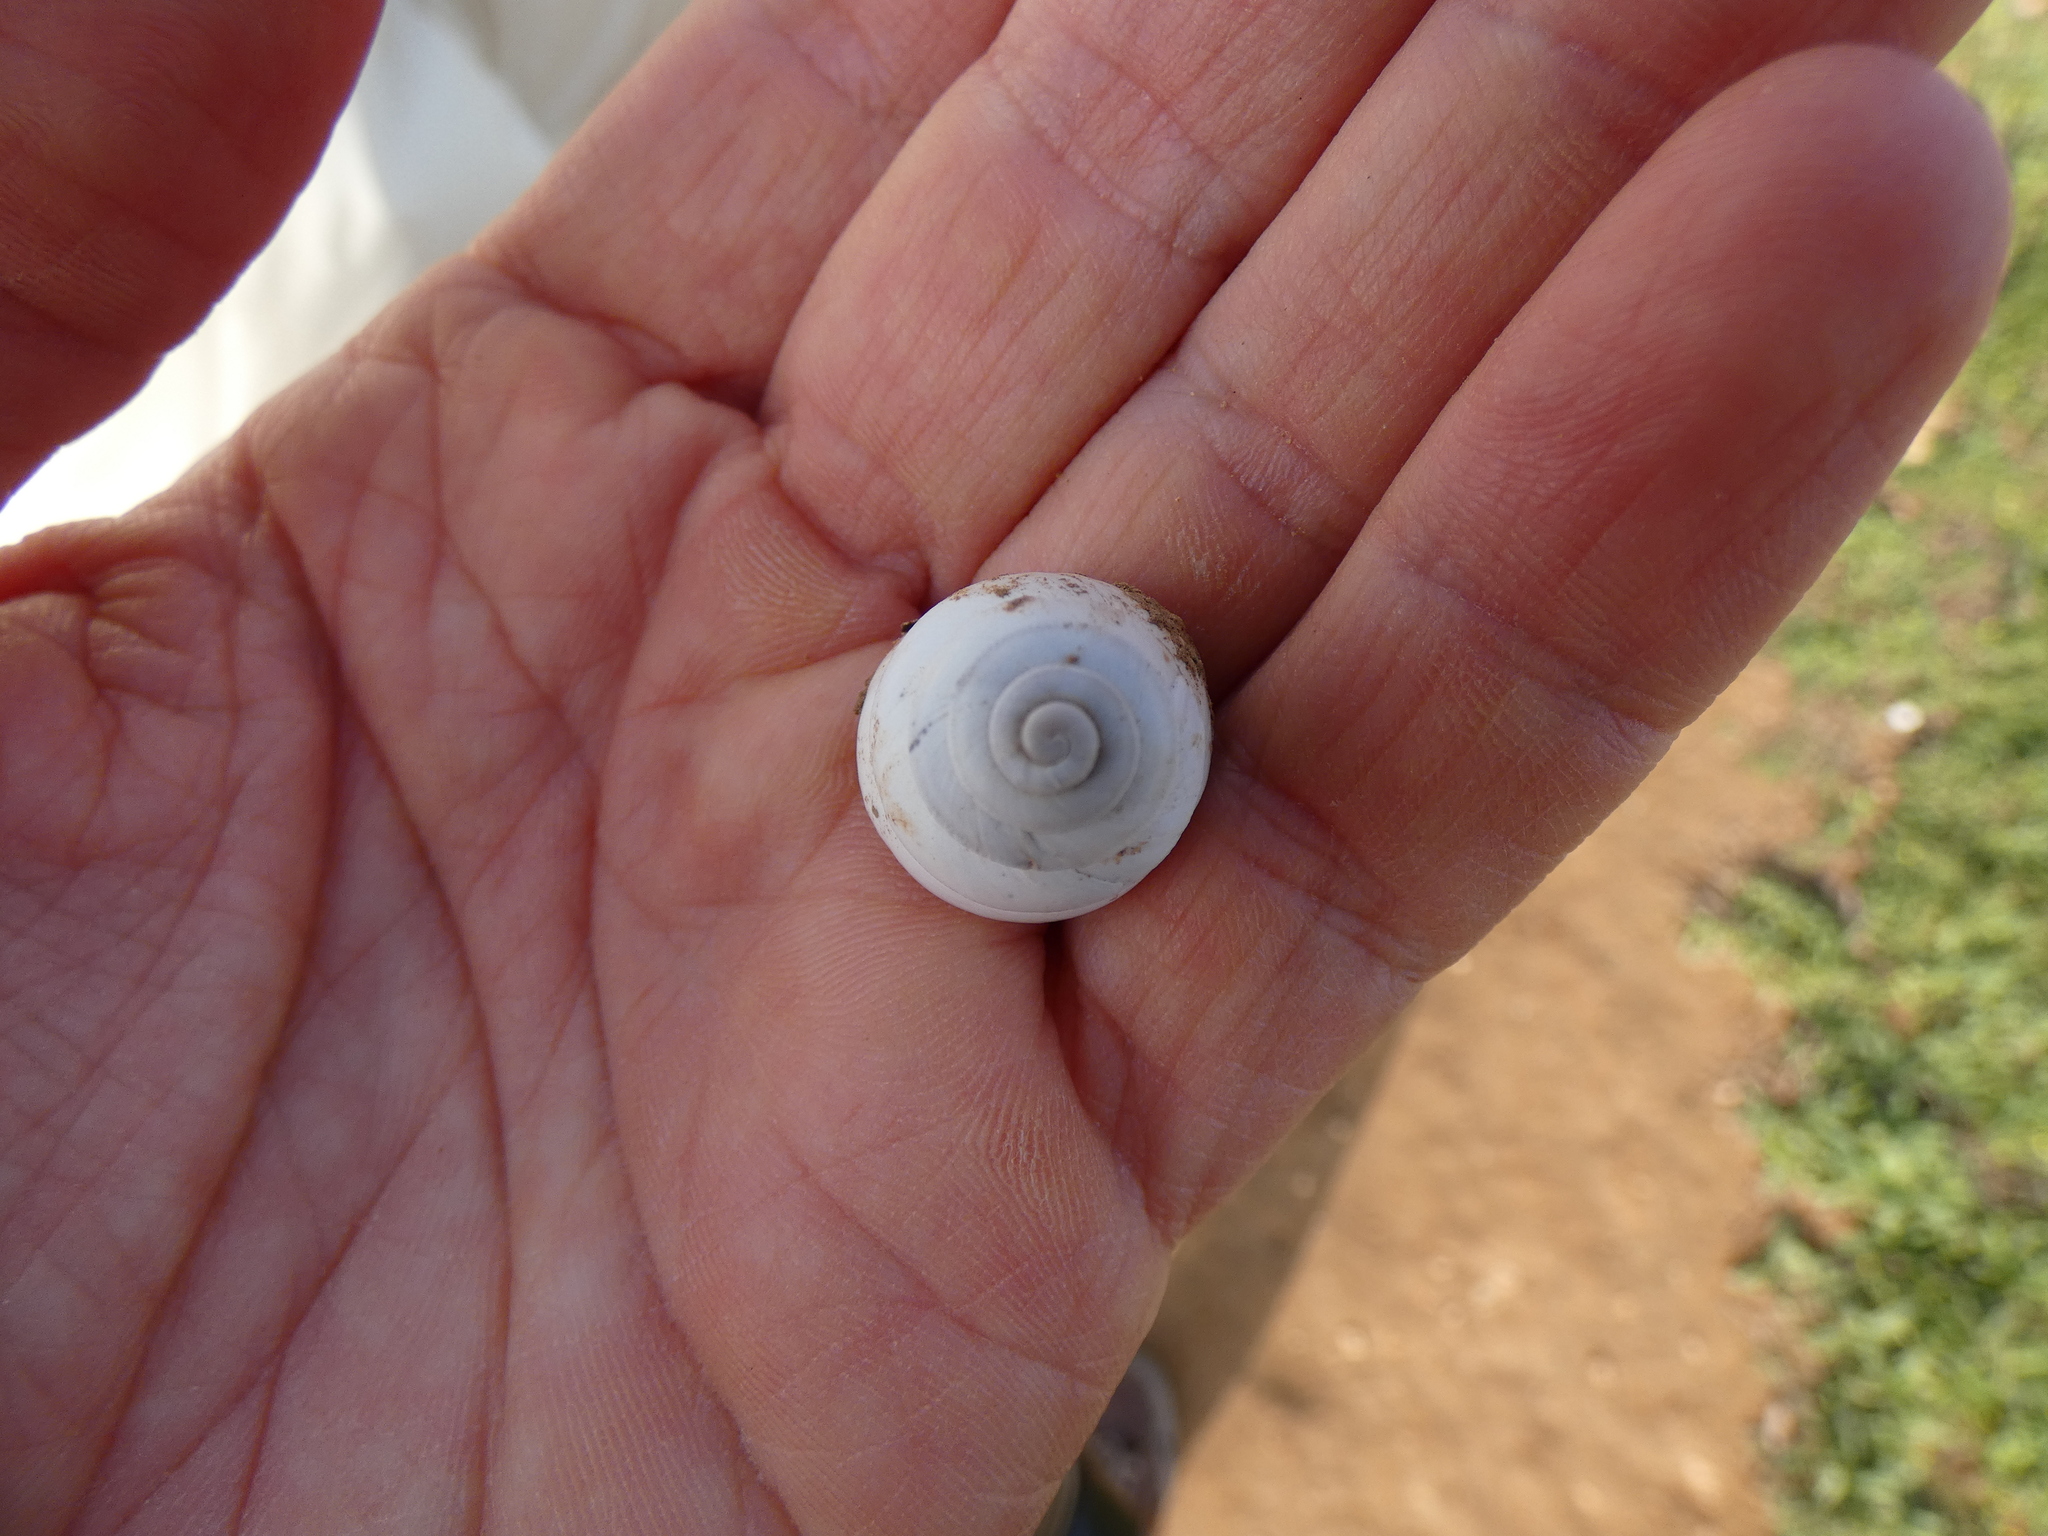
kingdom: Animalia
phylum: Mollusca
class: Gastropoda
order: Stylommatophora
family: Sphincterochilidae
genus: Sphincterochila
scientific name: Sphincterochila candidissima
